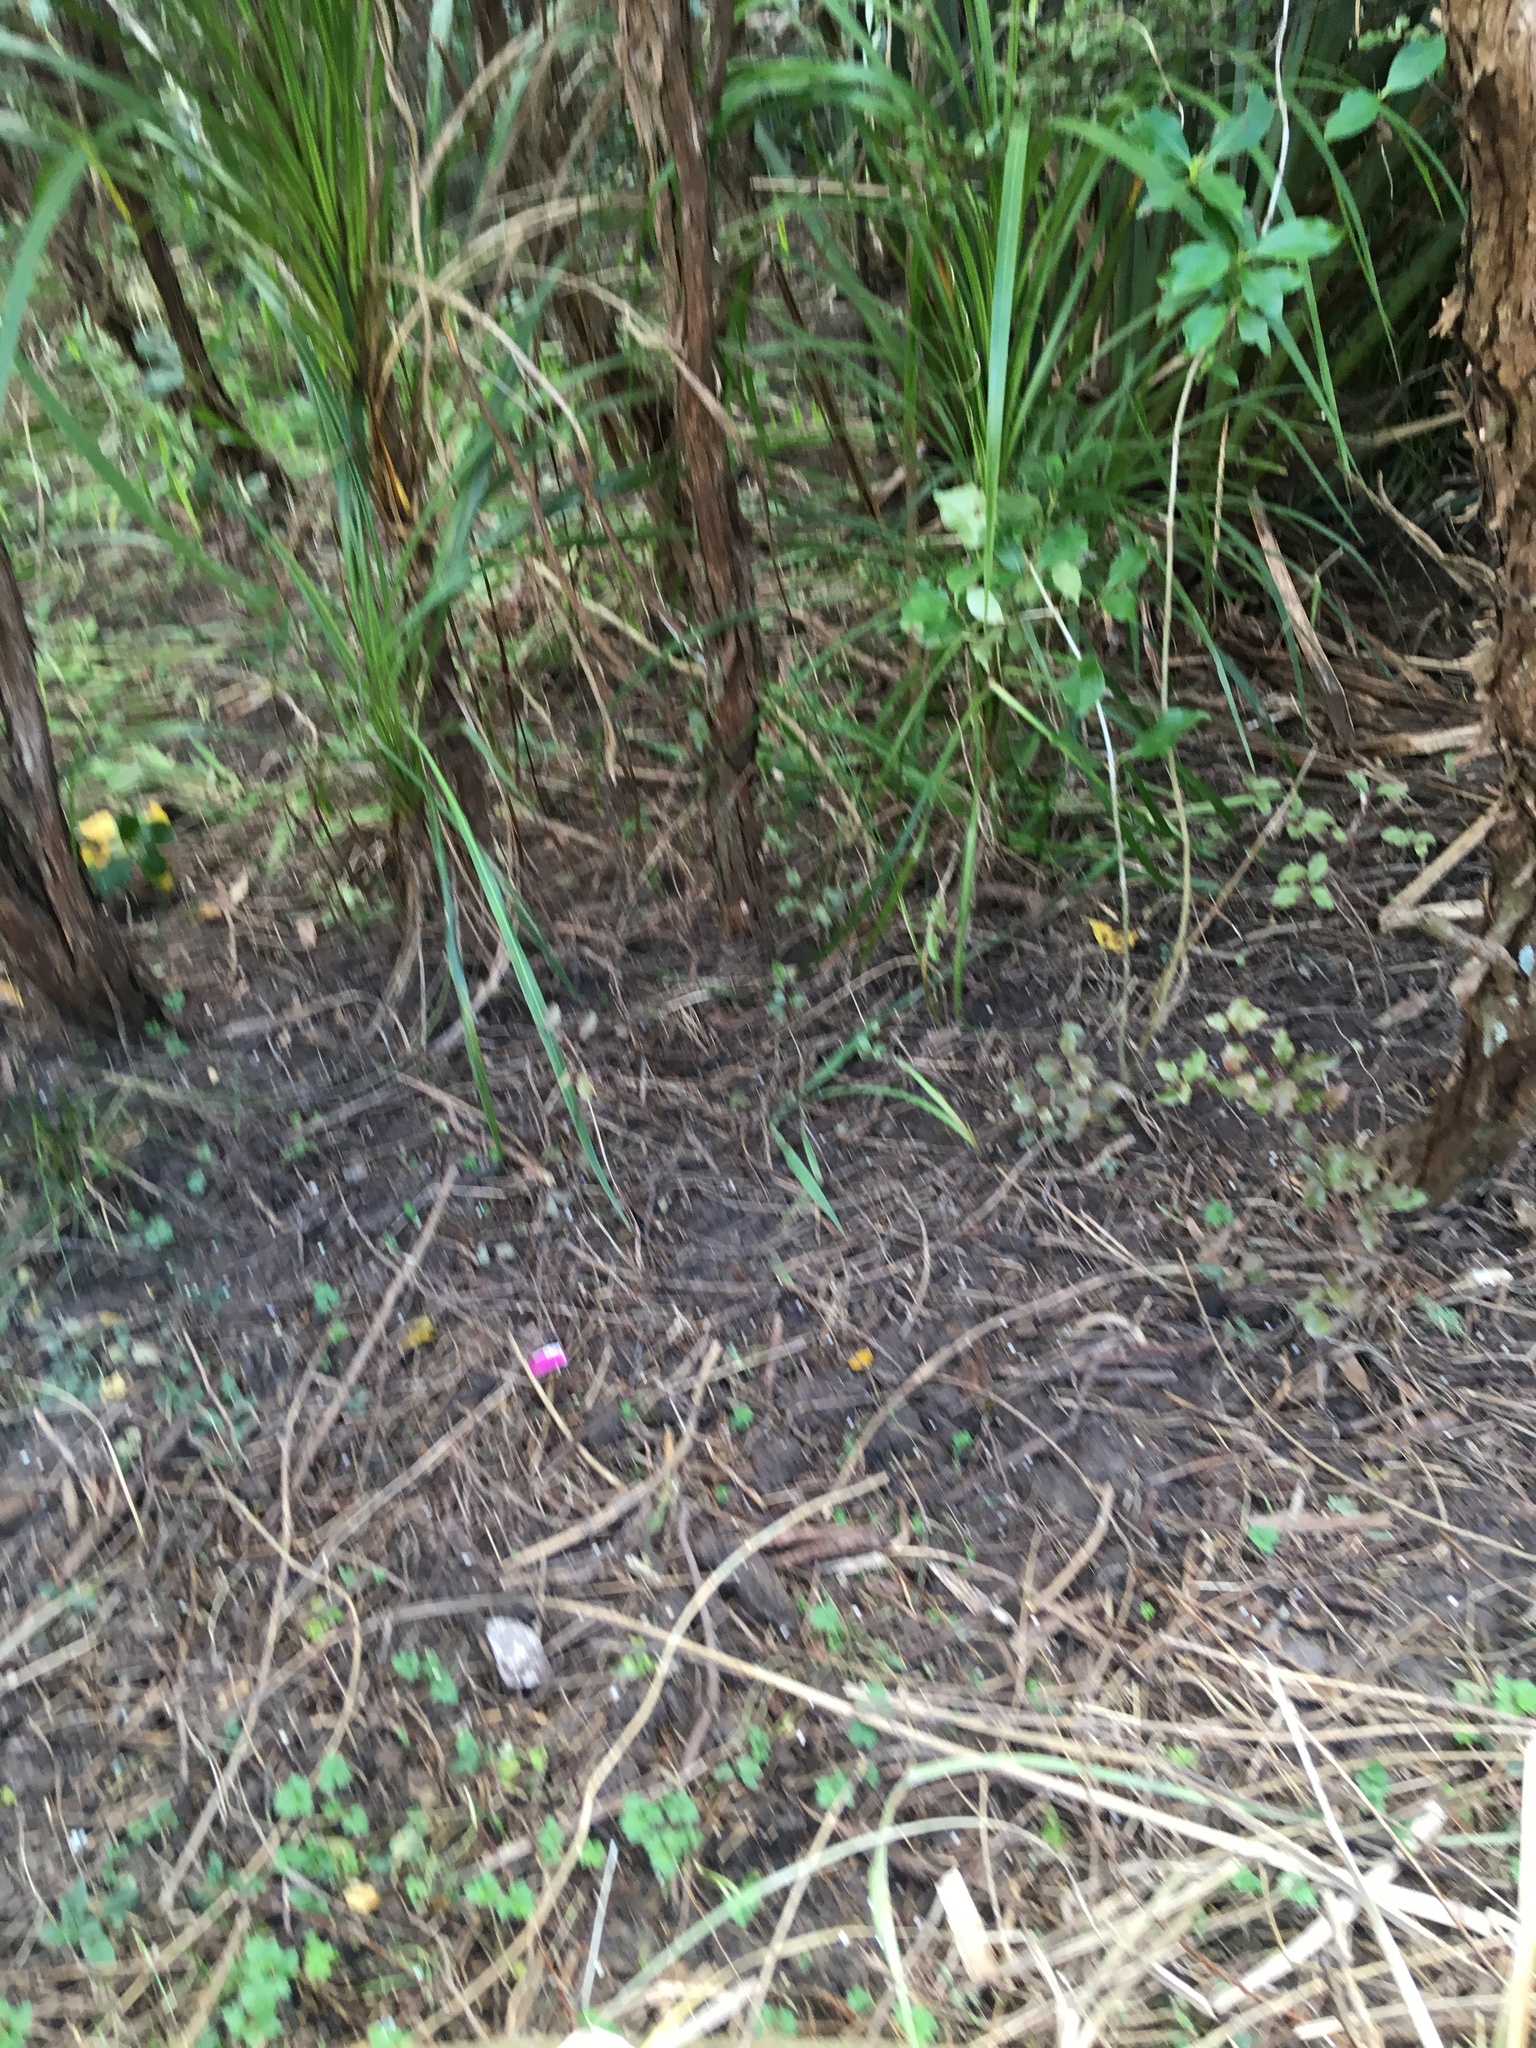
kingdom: Plantae
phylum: Tracheophyta
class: Magnoliopsida
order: Ranunculales
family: Ranunculaceae
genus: Ranunculus
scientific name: Ranunculus repens
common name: Creeping buttercup
